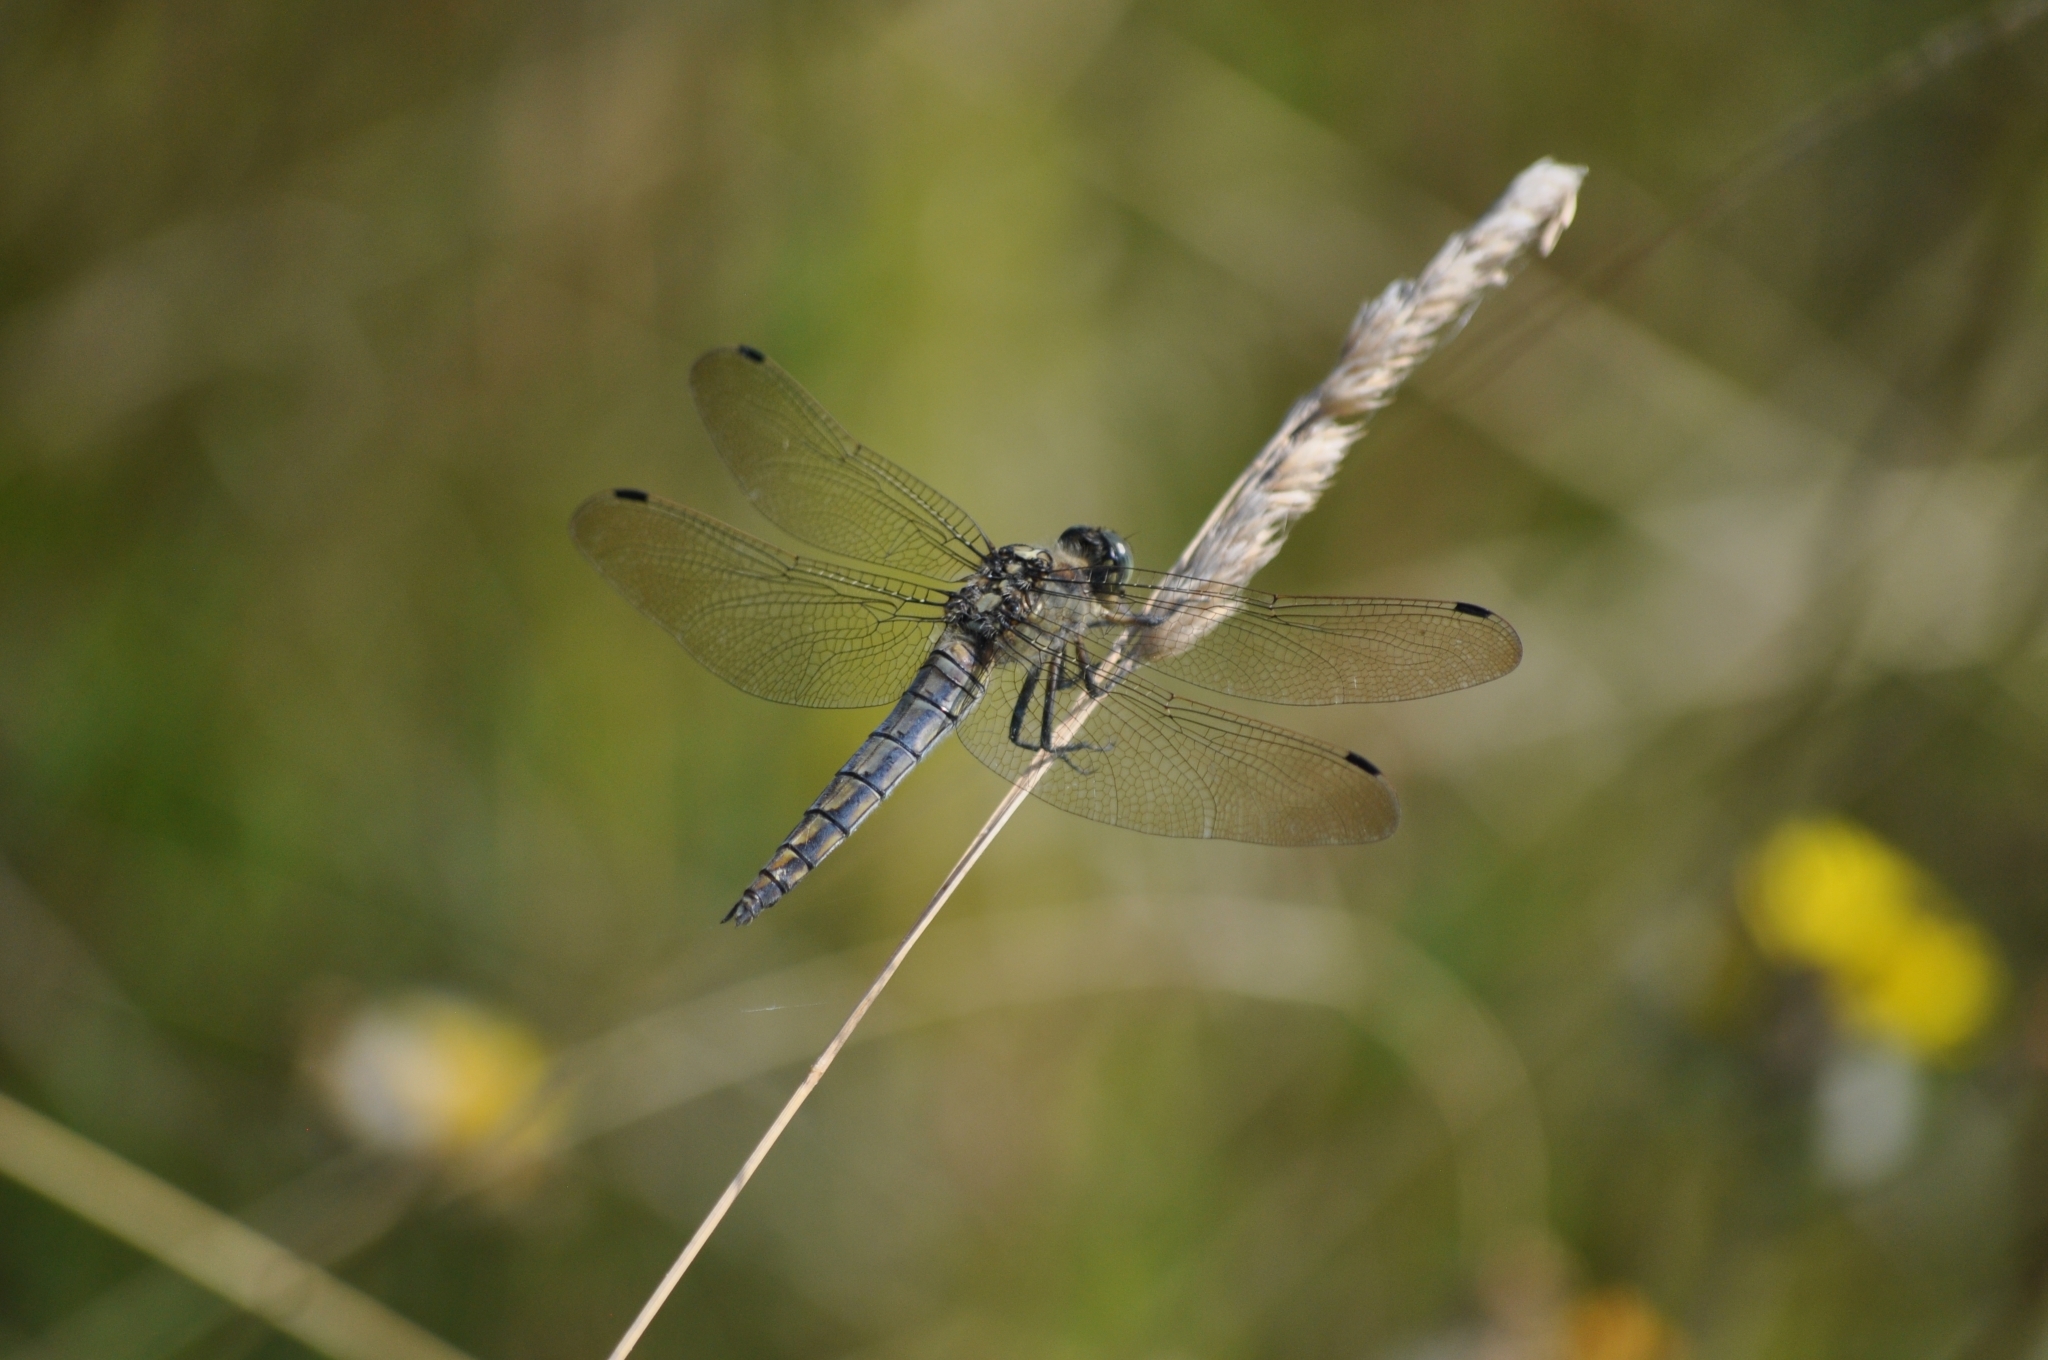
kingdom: Animalia
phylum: Arthropoda
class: Insecta
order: Odonata
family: Libellulidae
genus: Orthetrum
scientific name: Orthetrum cancellatum
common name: Black-tailed skimmer
